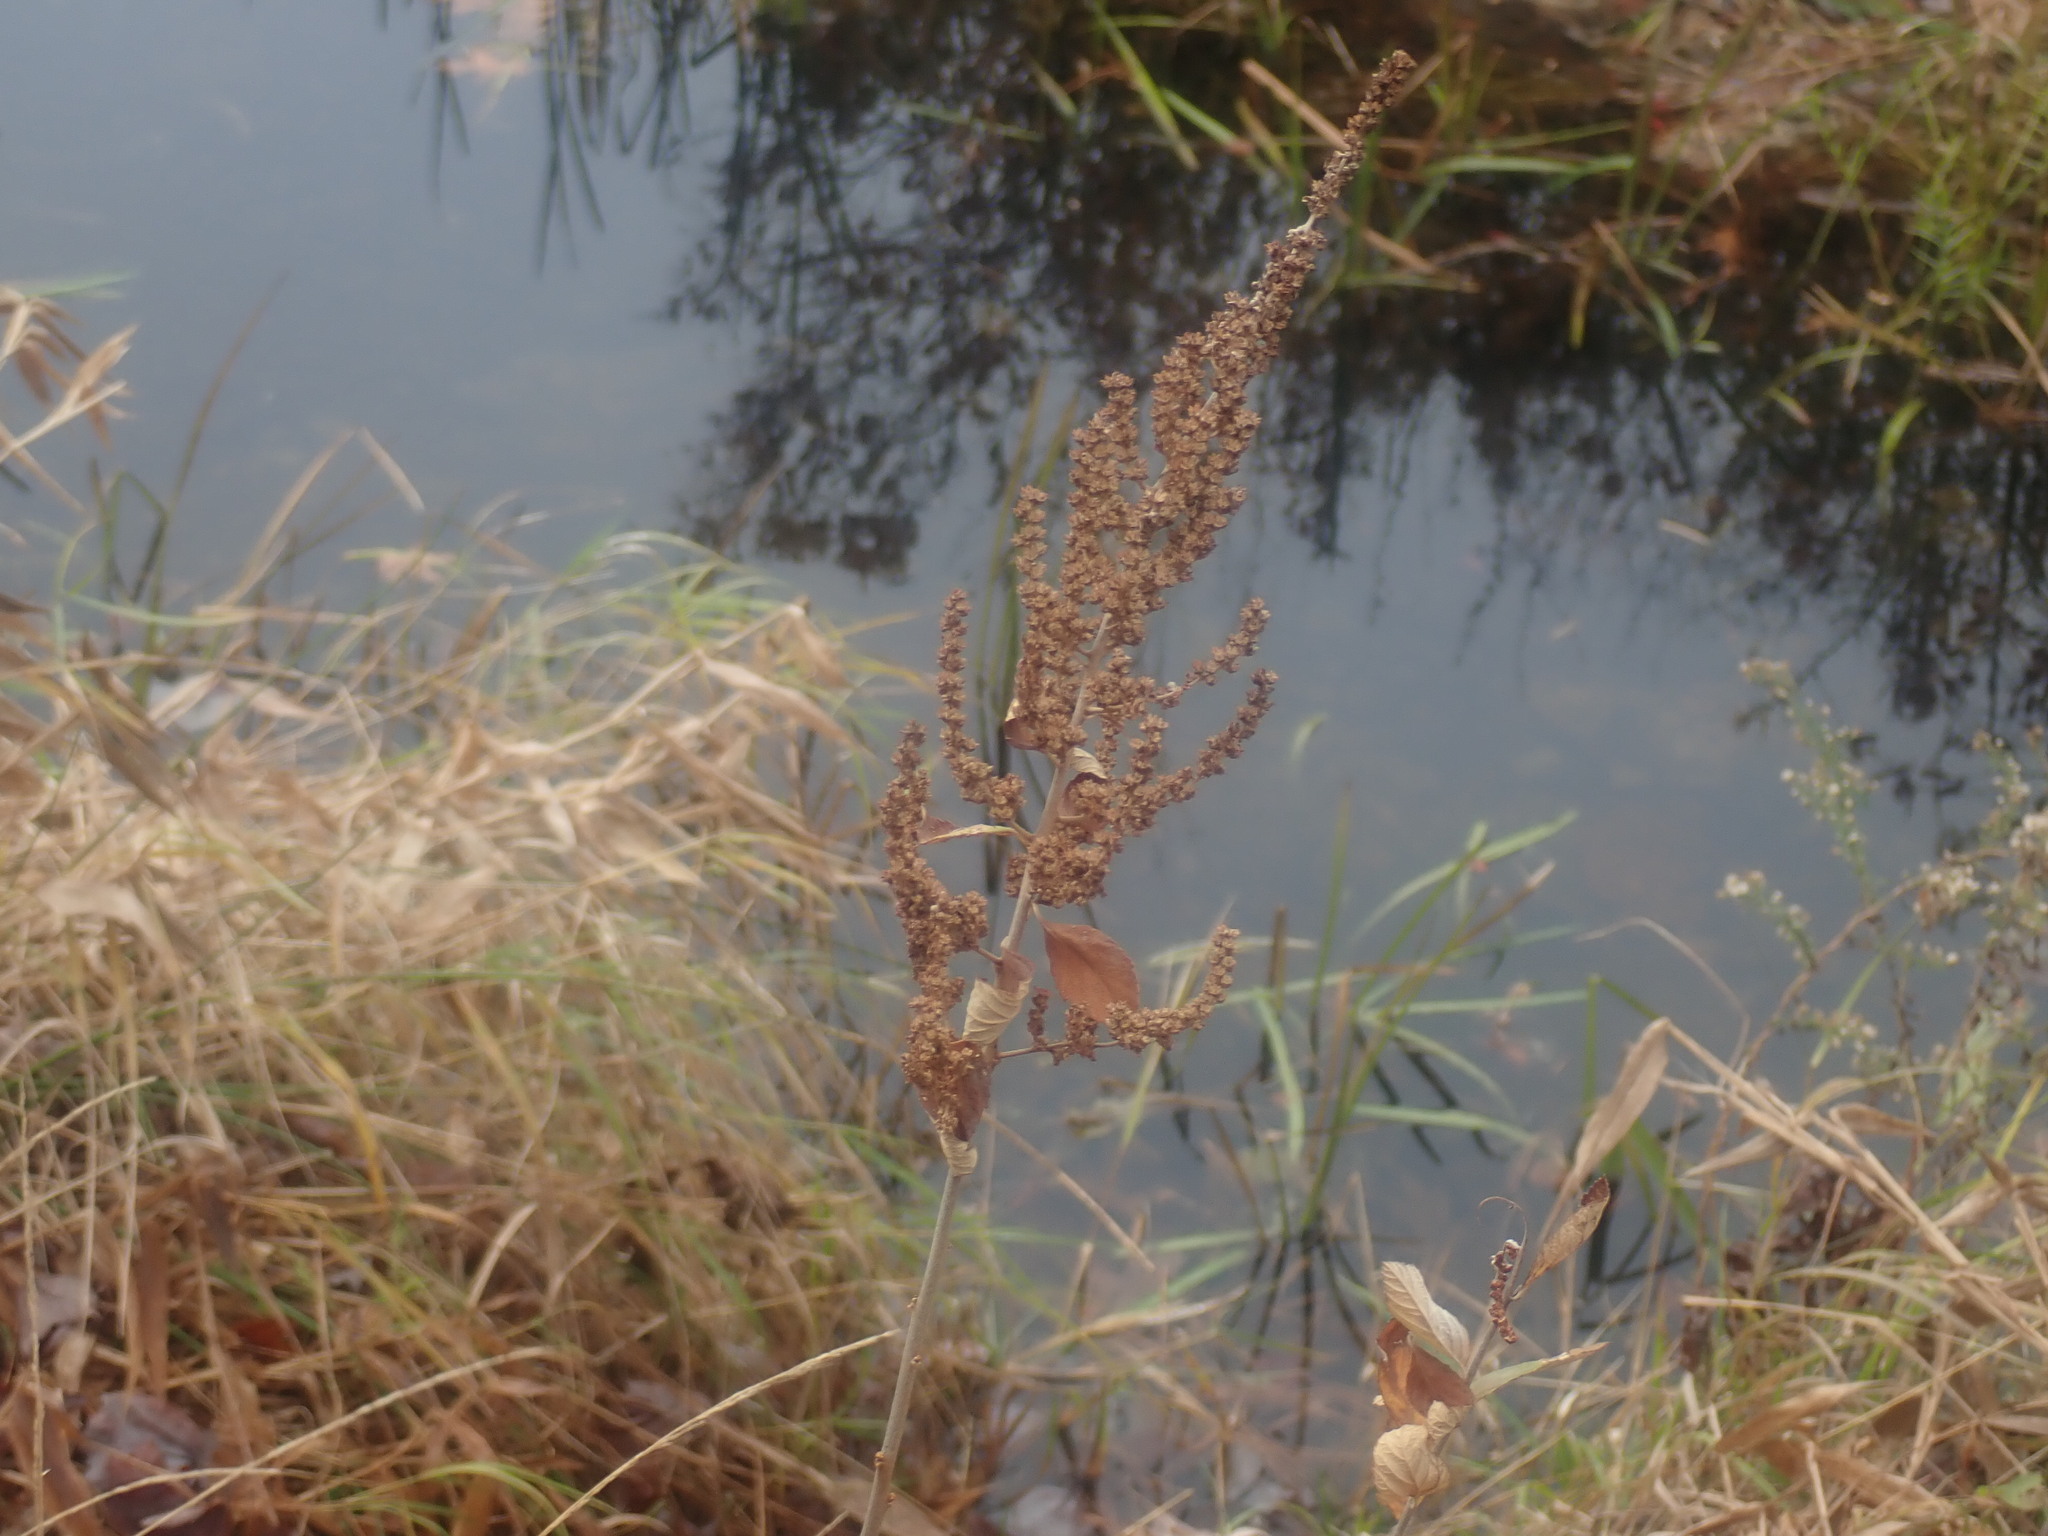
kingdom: Plantae
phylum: Tracheophyta
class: Magnoliopsida
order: Rosales
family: Rosaceae
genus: Spiraea
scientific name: Spiraea tomentosa
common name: Hardhack
